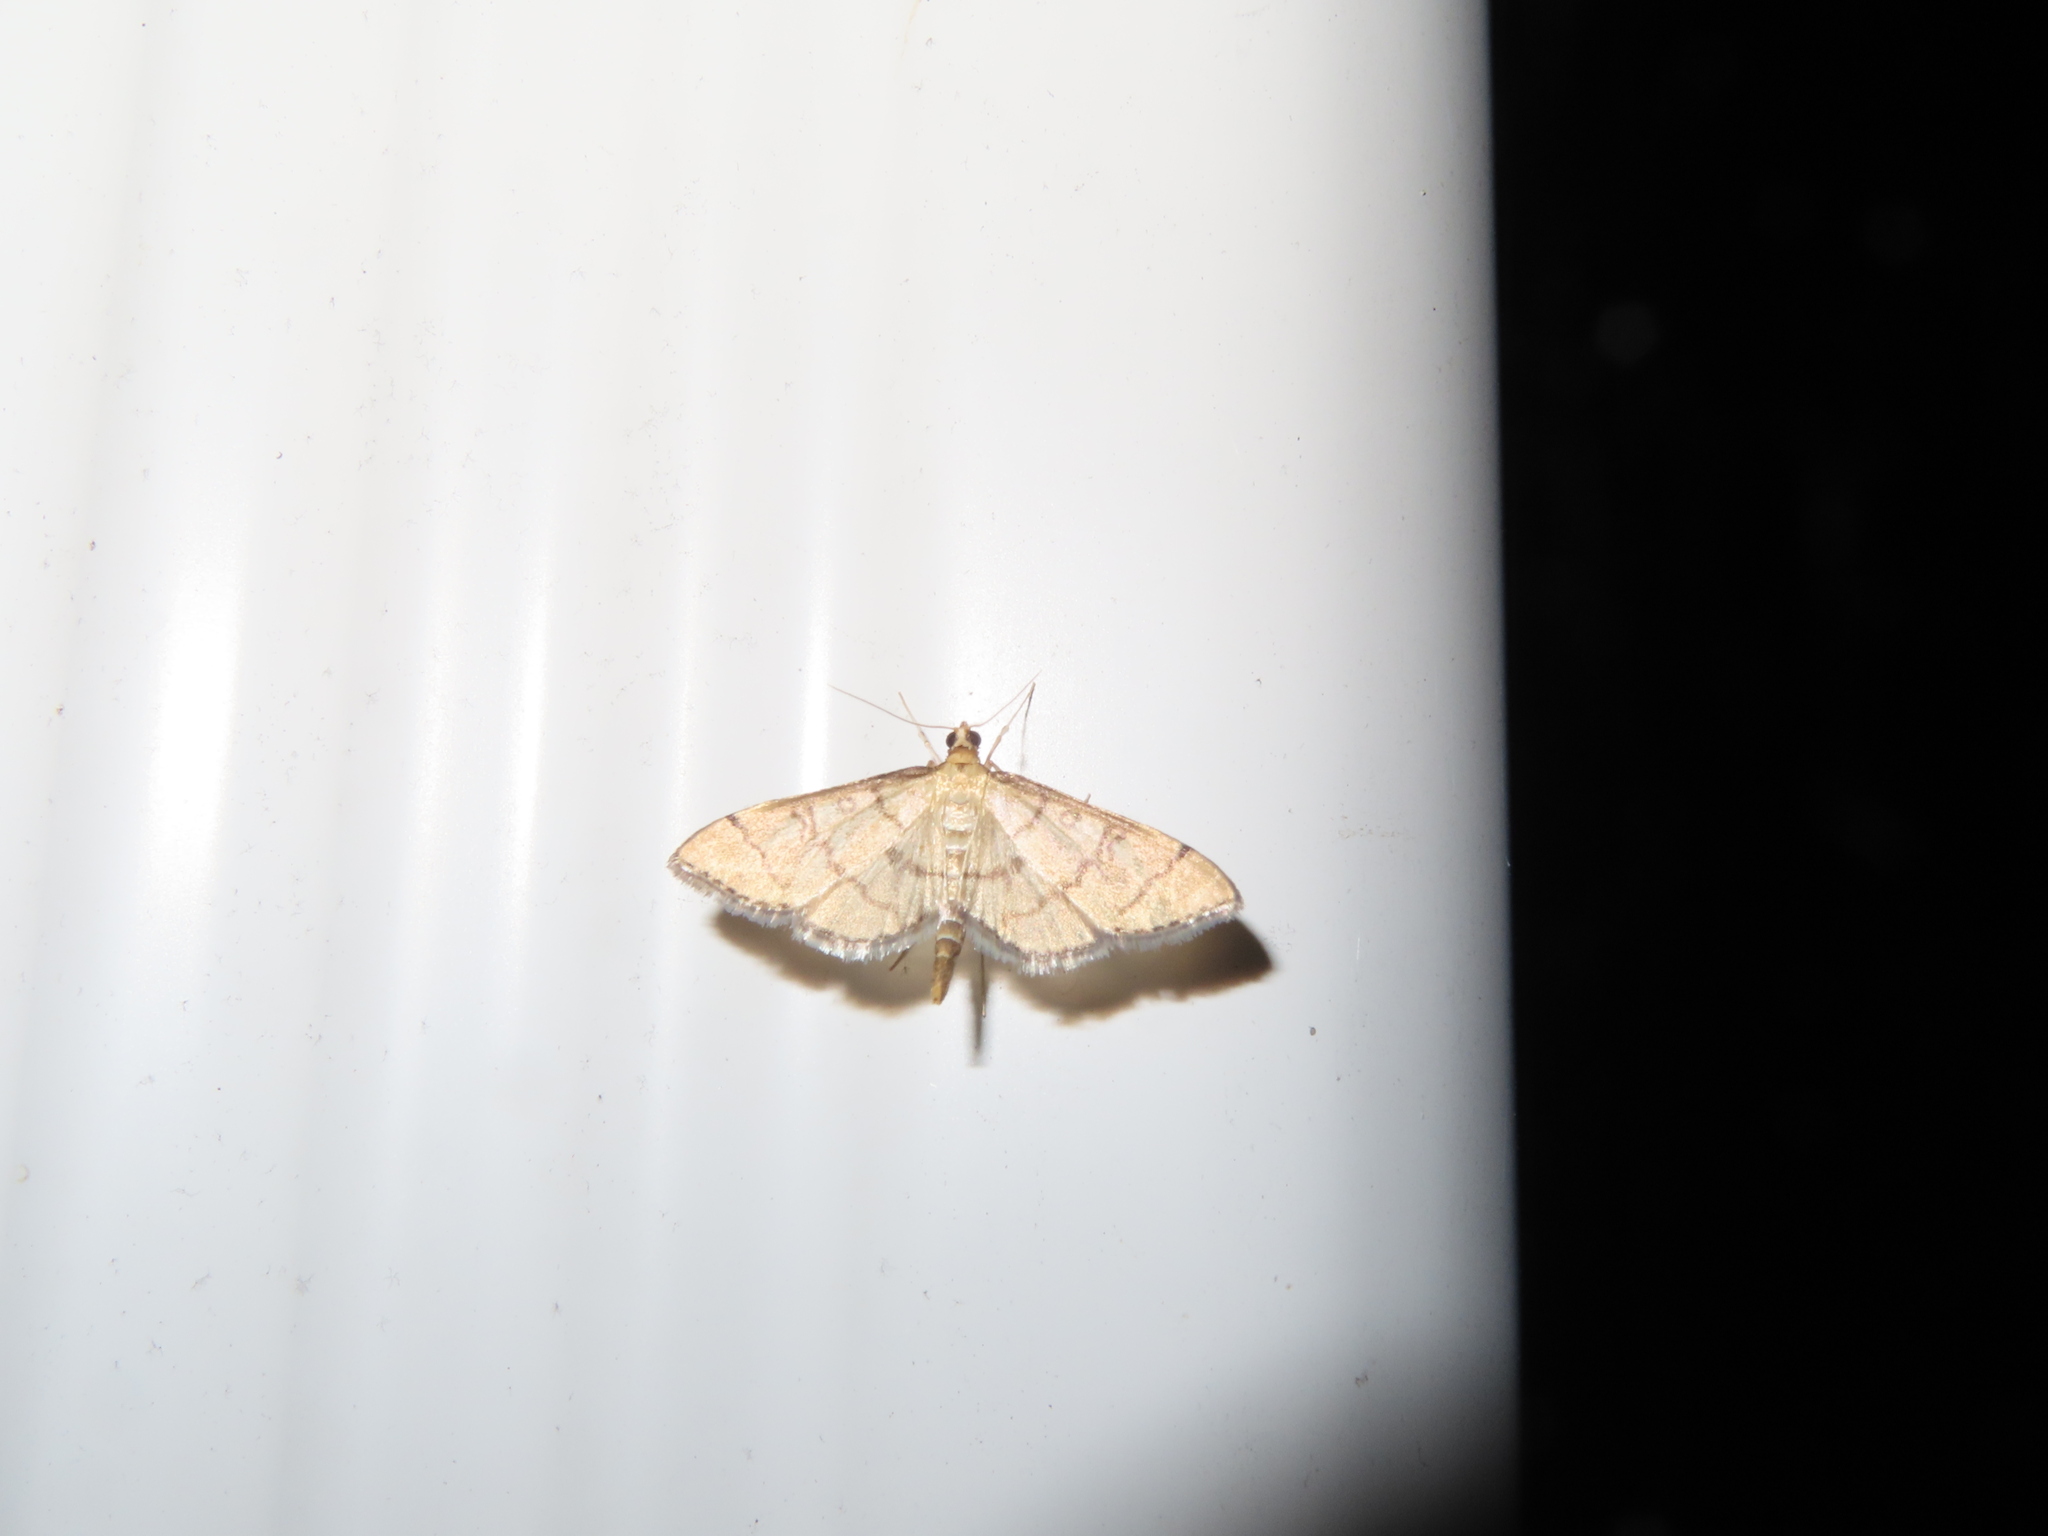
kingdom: Animalia
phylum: Arthropoda
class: Insecta
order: Lepidoptera
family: Crambidae
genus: Lamprosema
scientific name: Lamprosema Blepharomastix ranalis
